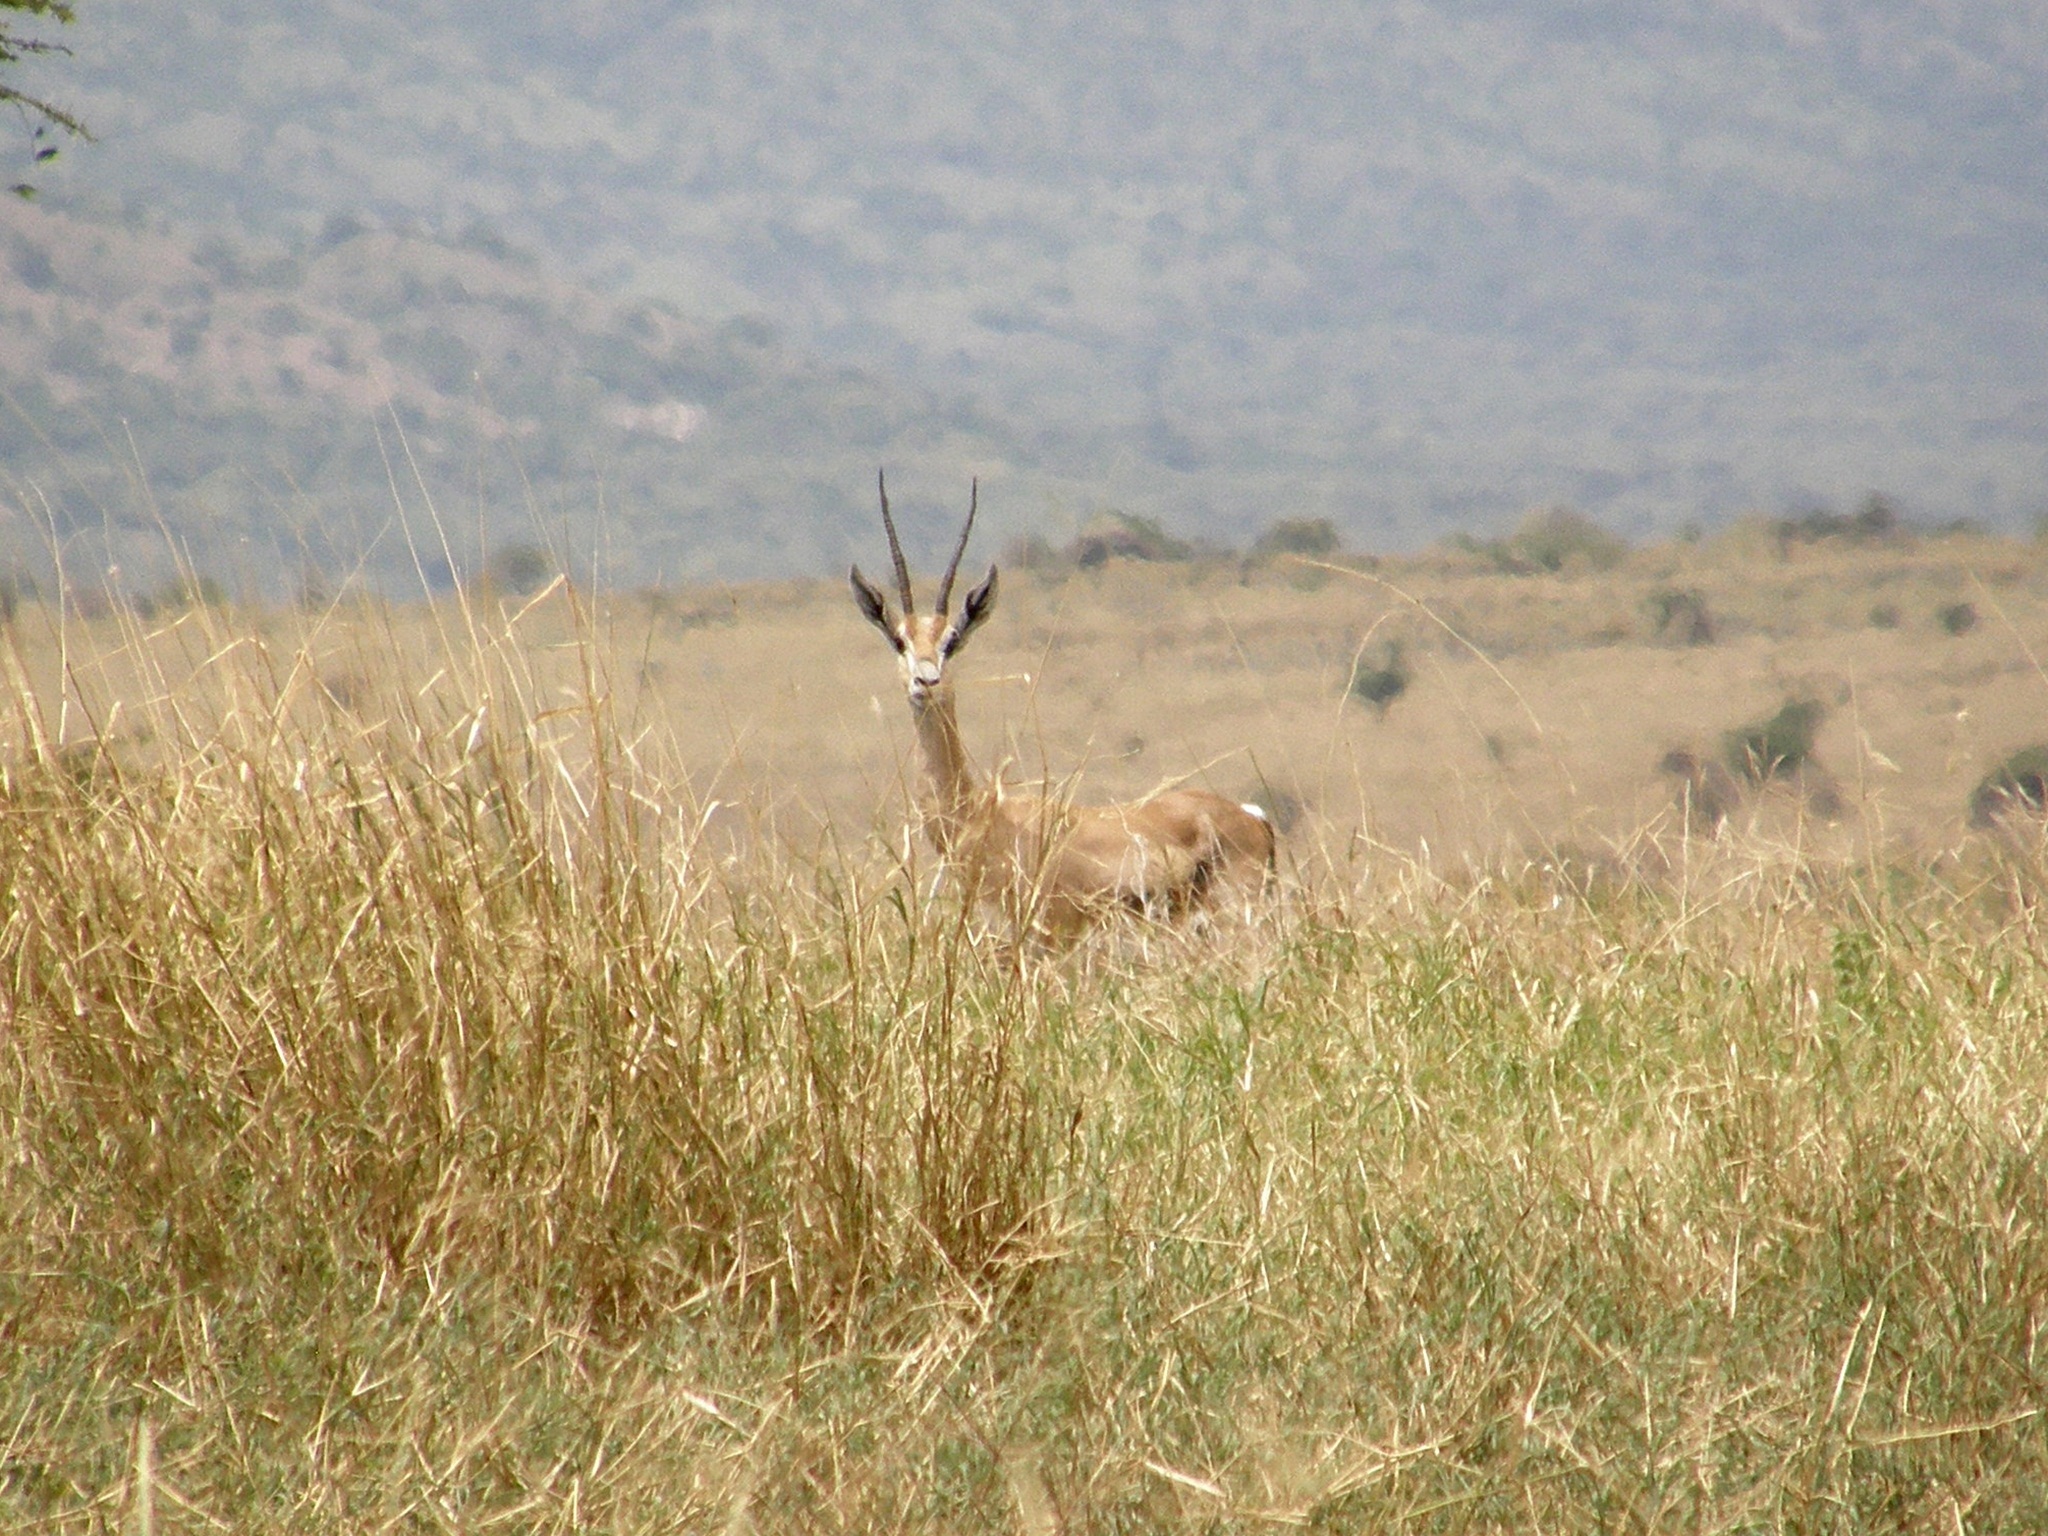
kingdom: Animalia
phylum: Chordata
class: Mammalia
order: Artiodactyla
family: Bovidae
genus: Nanger
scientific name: Nanger granti
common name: Grant's gazelle
